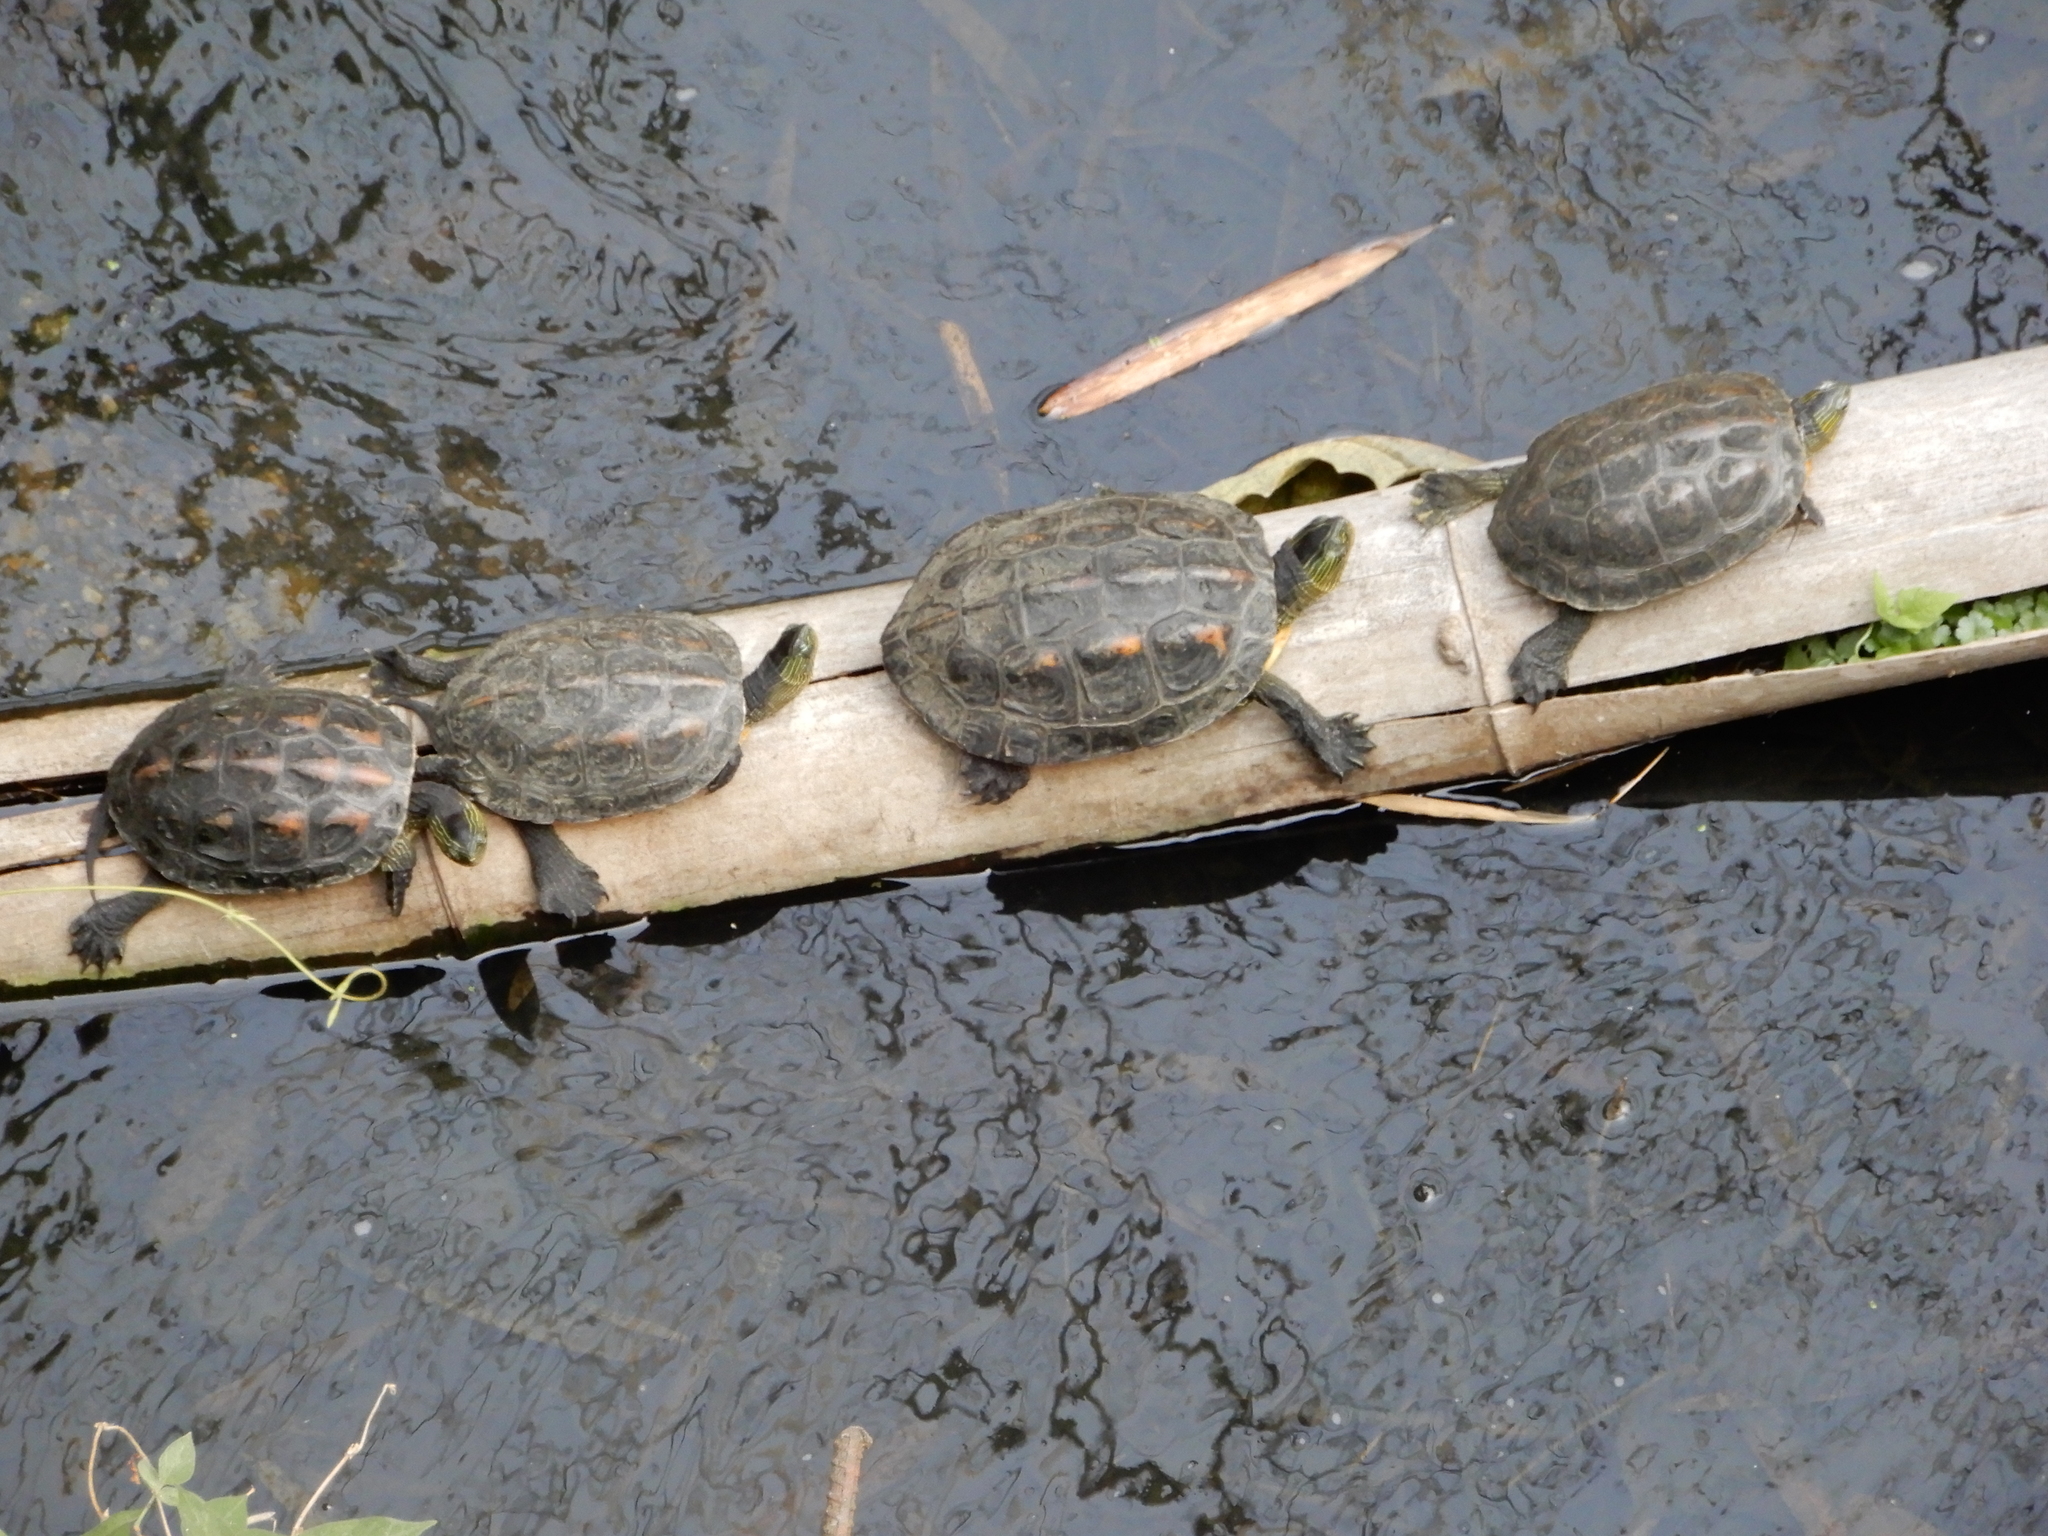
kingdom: Animalia
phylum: Chordata
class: Testudines
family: Geoemydidae
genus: Mauremys
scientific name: Mauremys sinensis
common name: Chinese stripe-necked turtle
